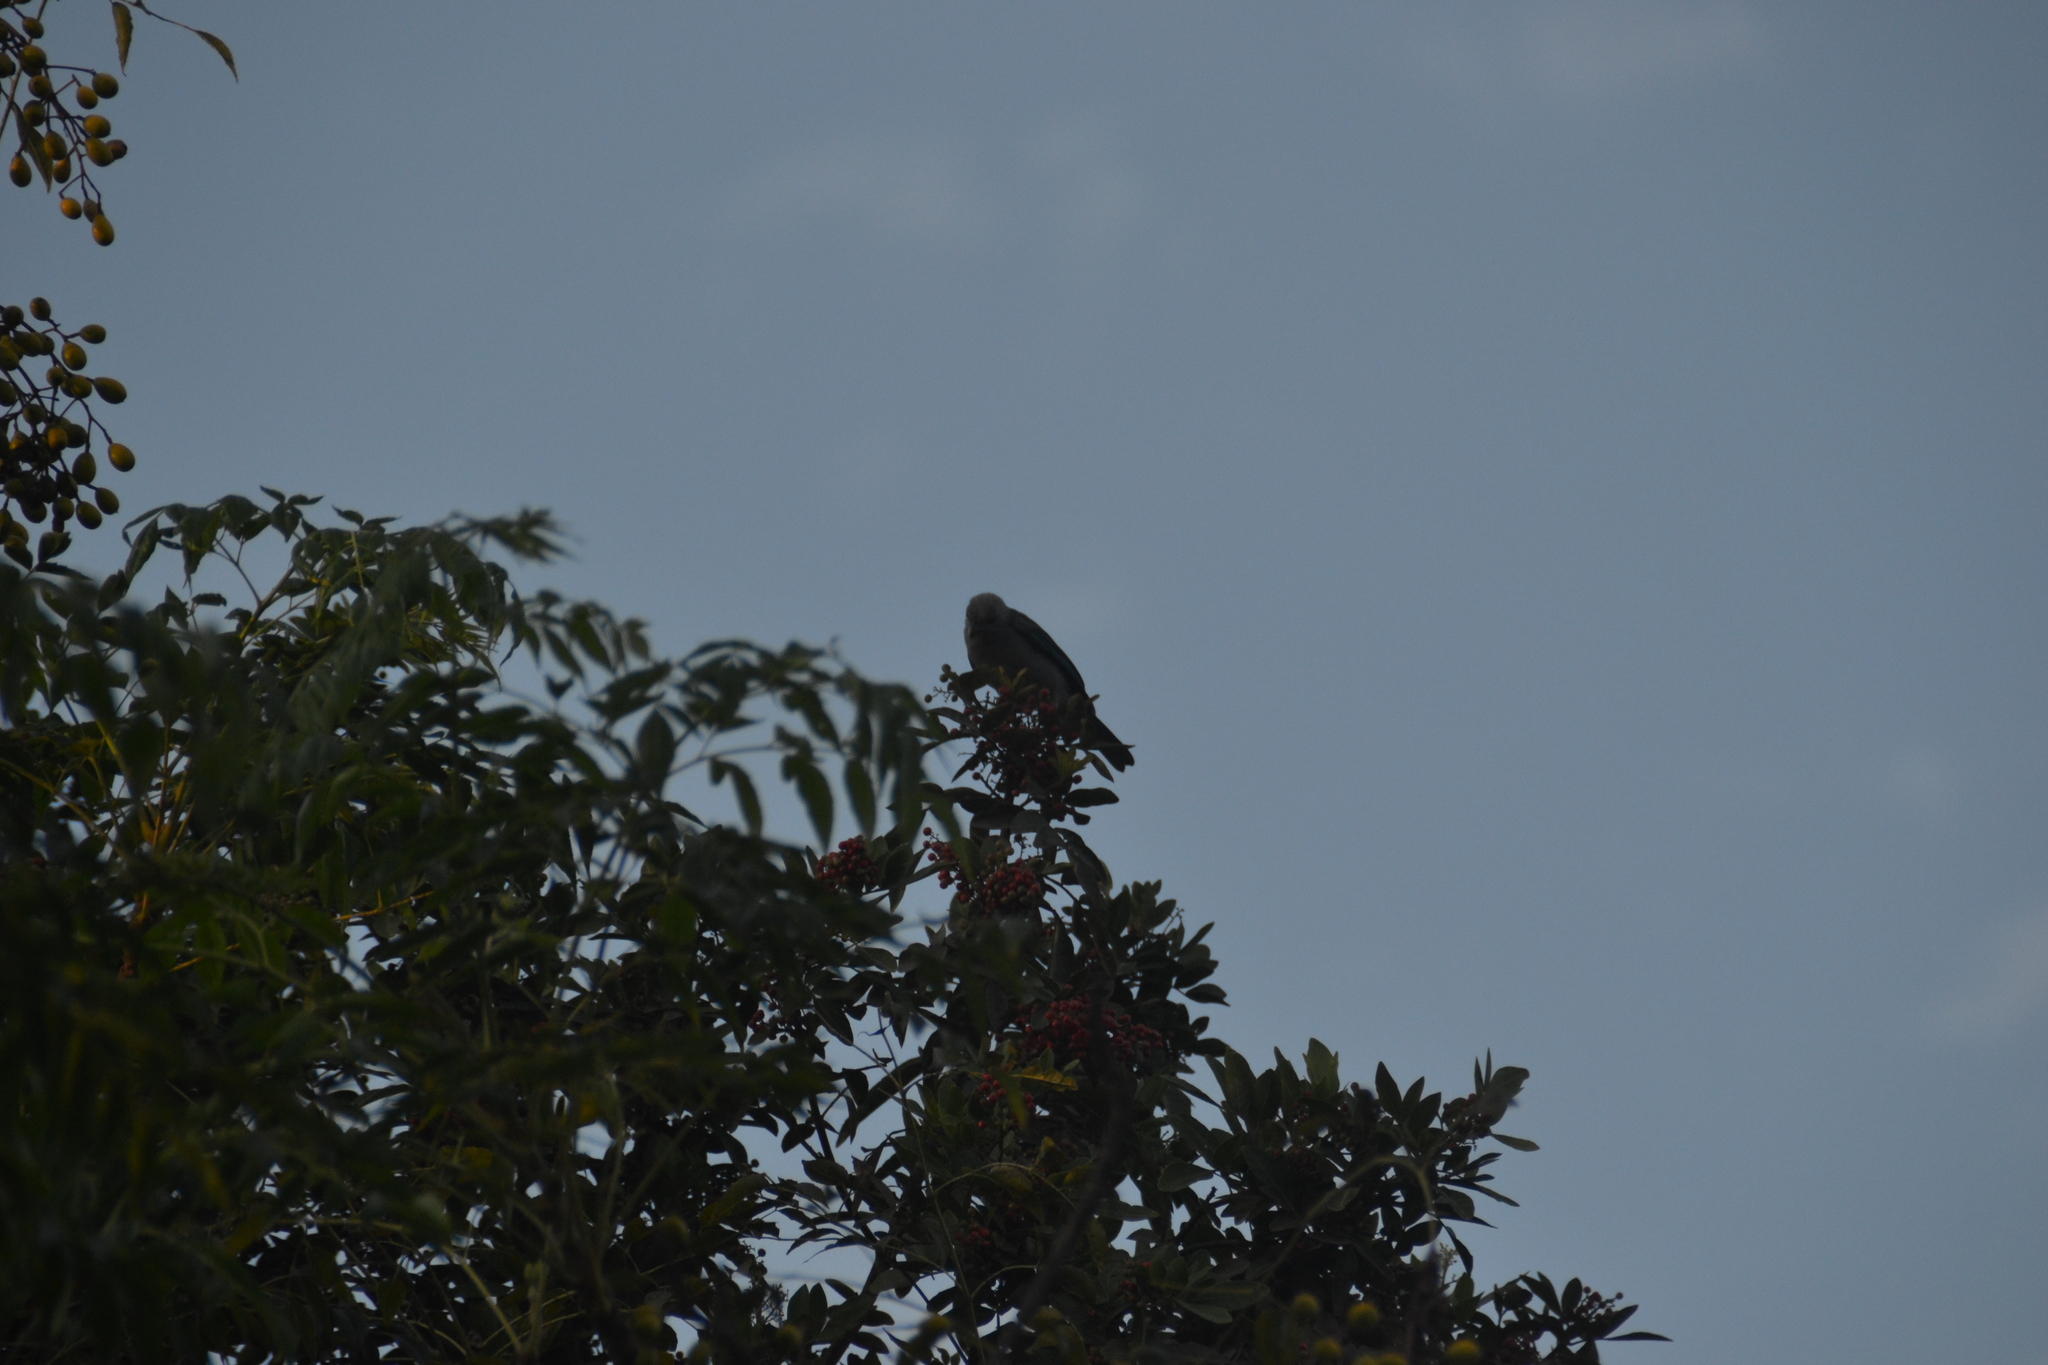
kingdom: Animalia
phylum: Chordata
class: Aves
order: Passeriformes
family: Thraupidae
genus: Thraupis
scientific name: Thraupis episcopus
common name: Blue-grey tanager
